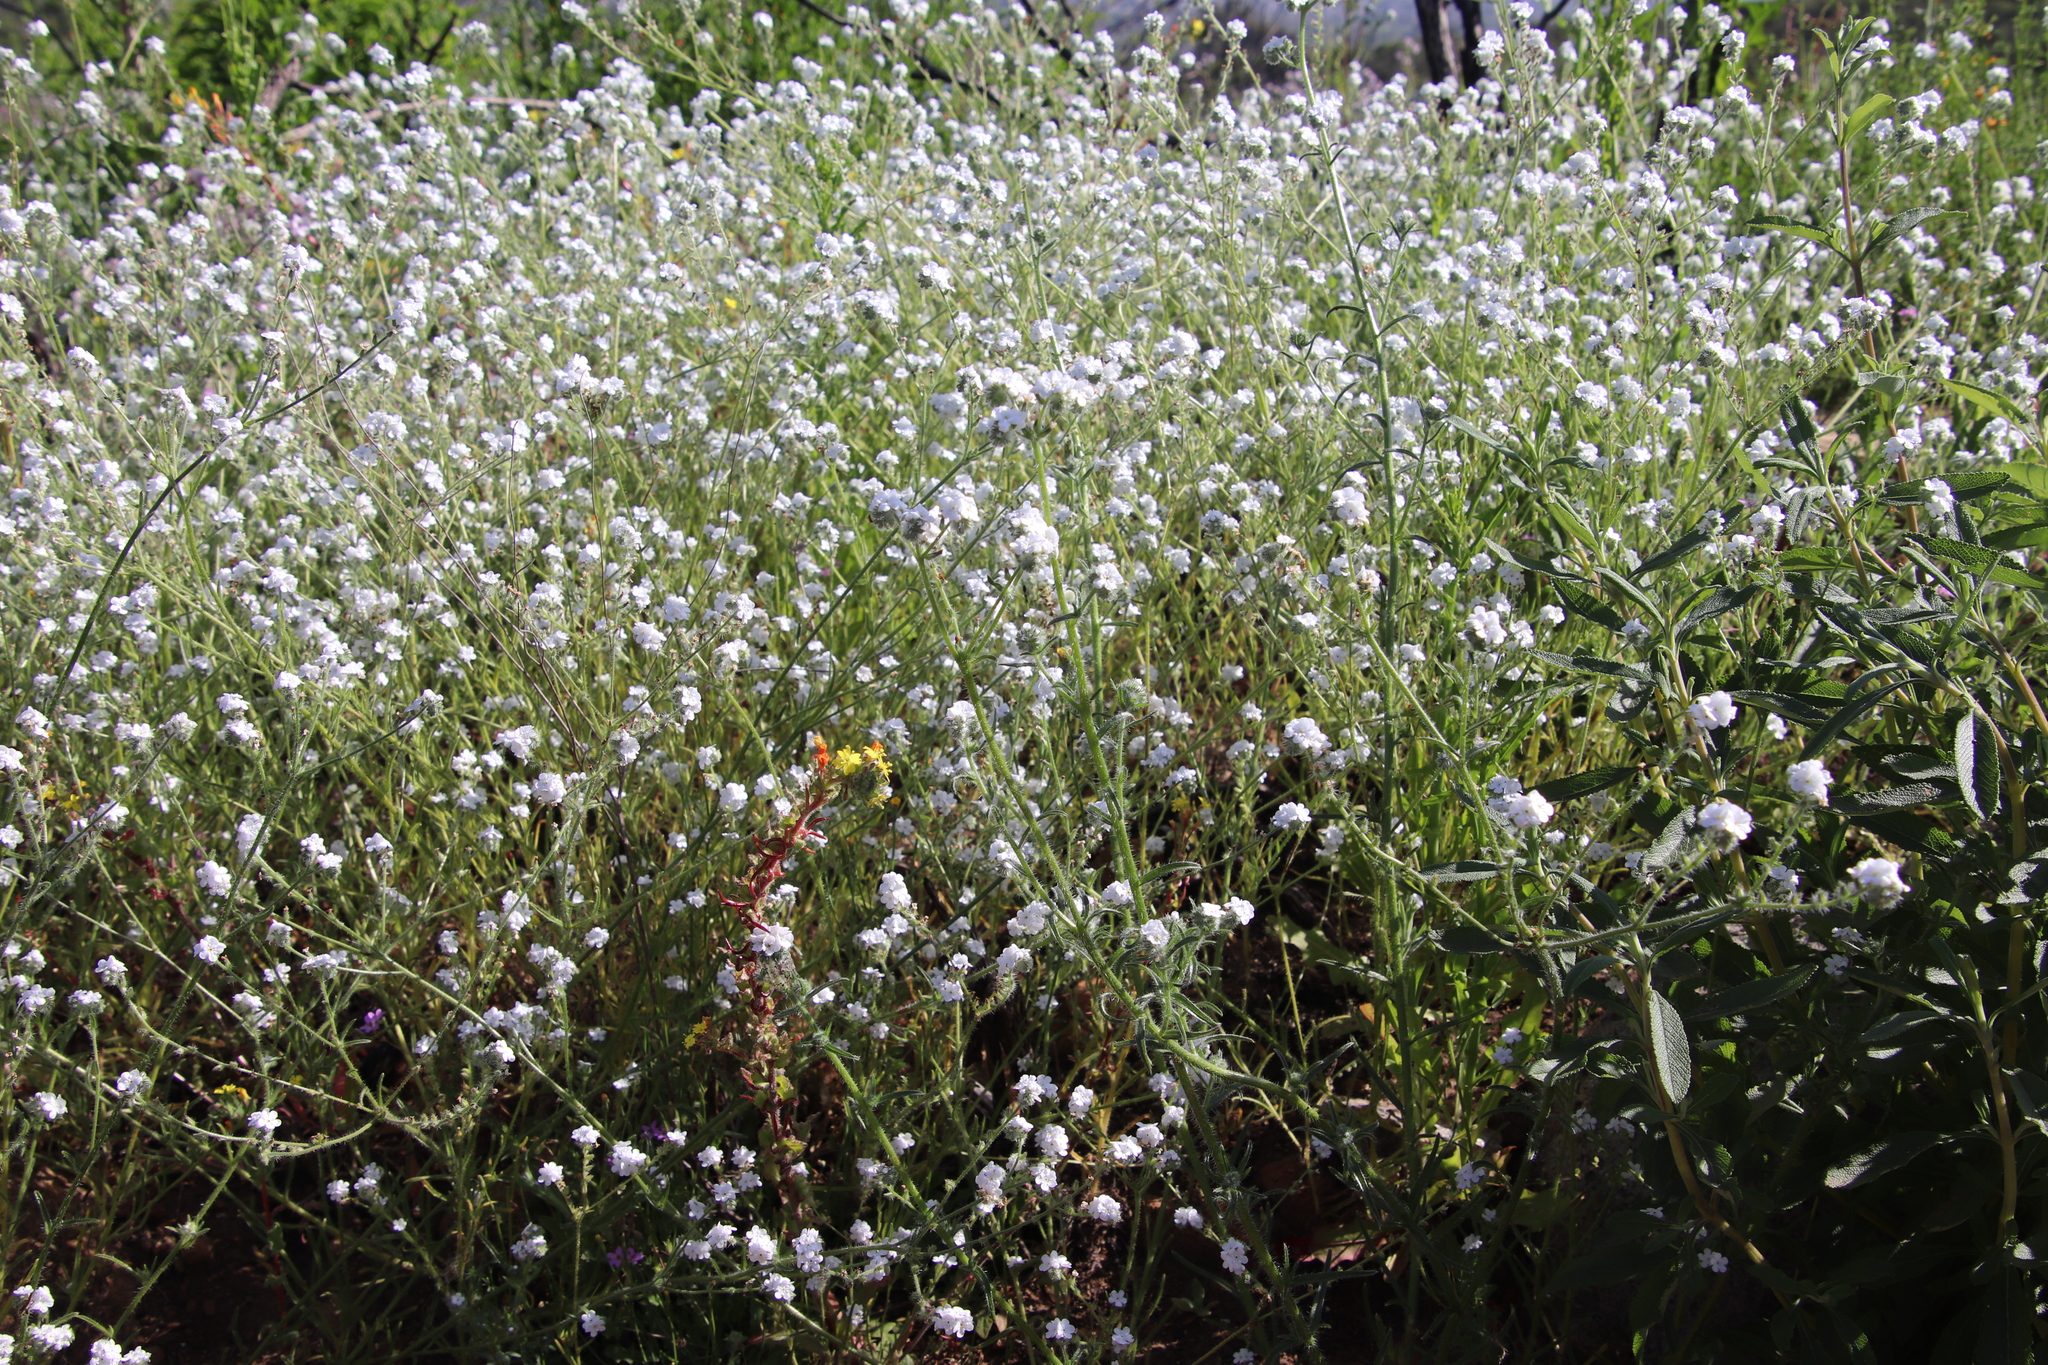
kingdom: Plantae
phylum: Tracheophyta
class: Magnoliopsida
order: Boraginales
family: Boraginaceae
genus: Cryptantha
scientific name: Cryptantha intermedia
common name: Clearwater cryptantha
